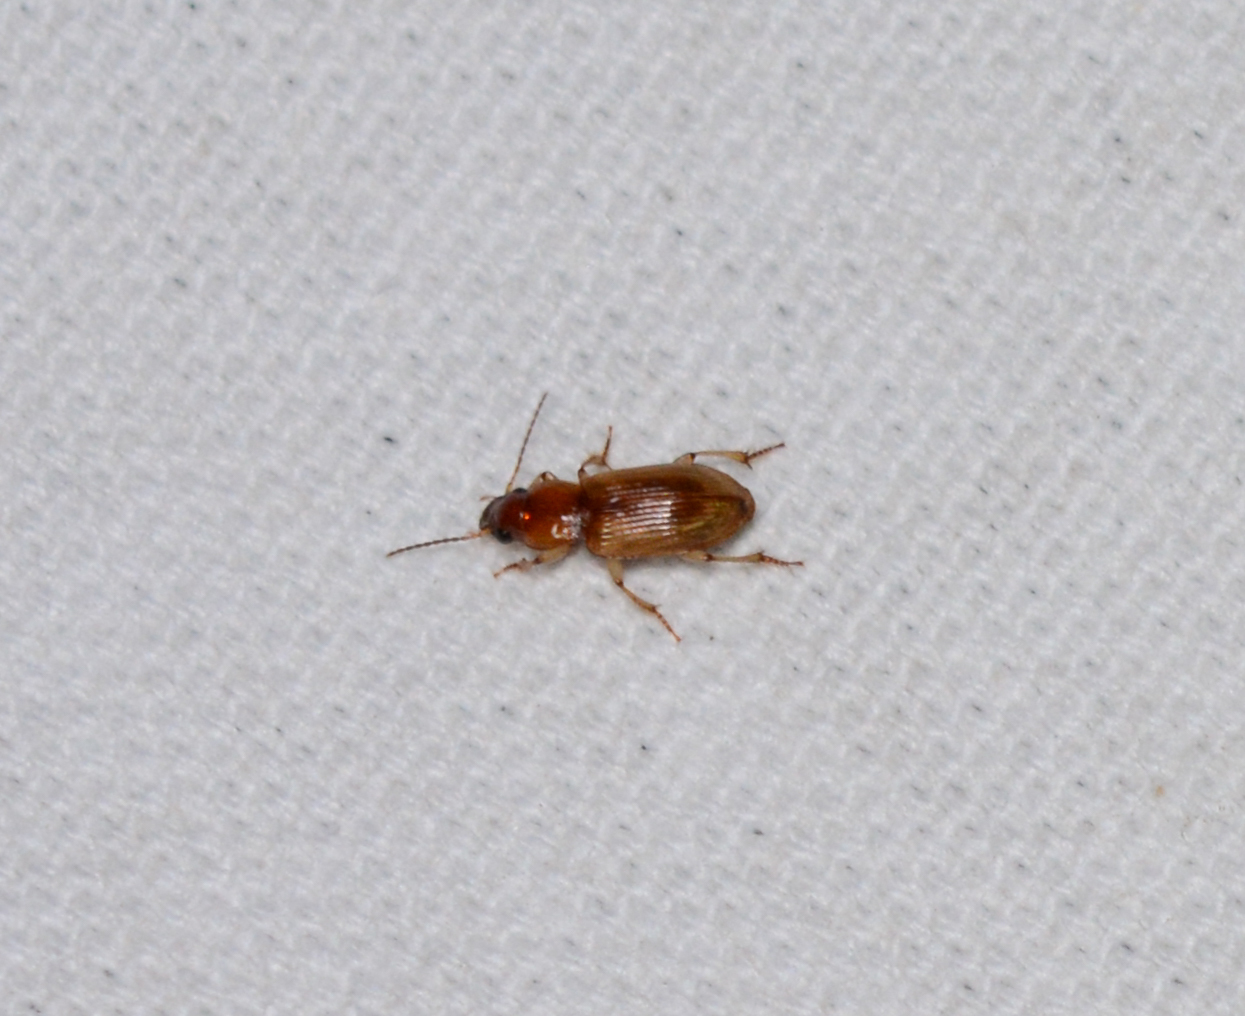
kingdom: Animalia
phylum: Arthropoda
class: Insecta
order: Coleoptera
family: Carabidae
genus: Stenolophus
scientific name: Stenolophus lecontei
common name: Leconte's seedcorn beetle
